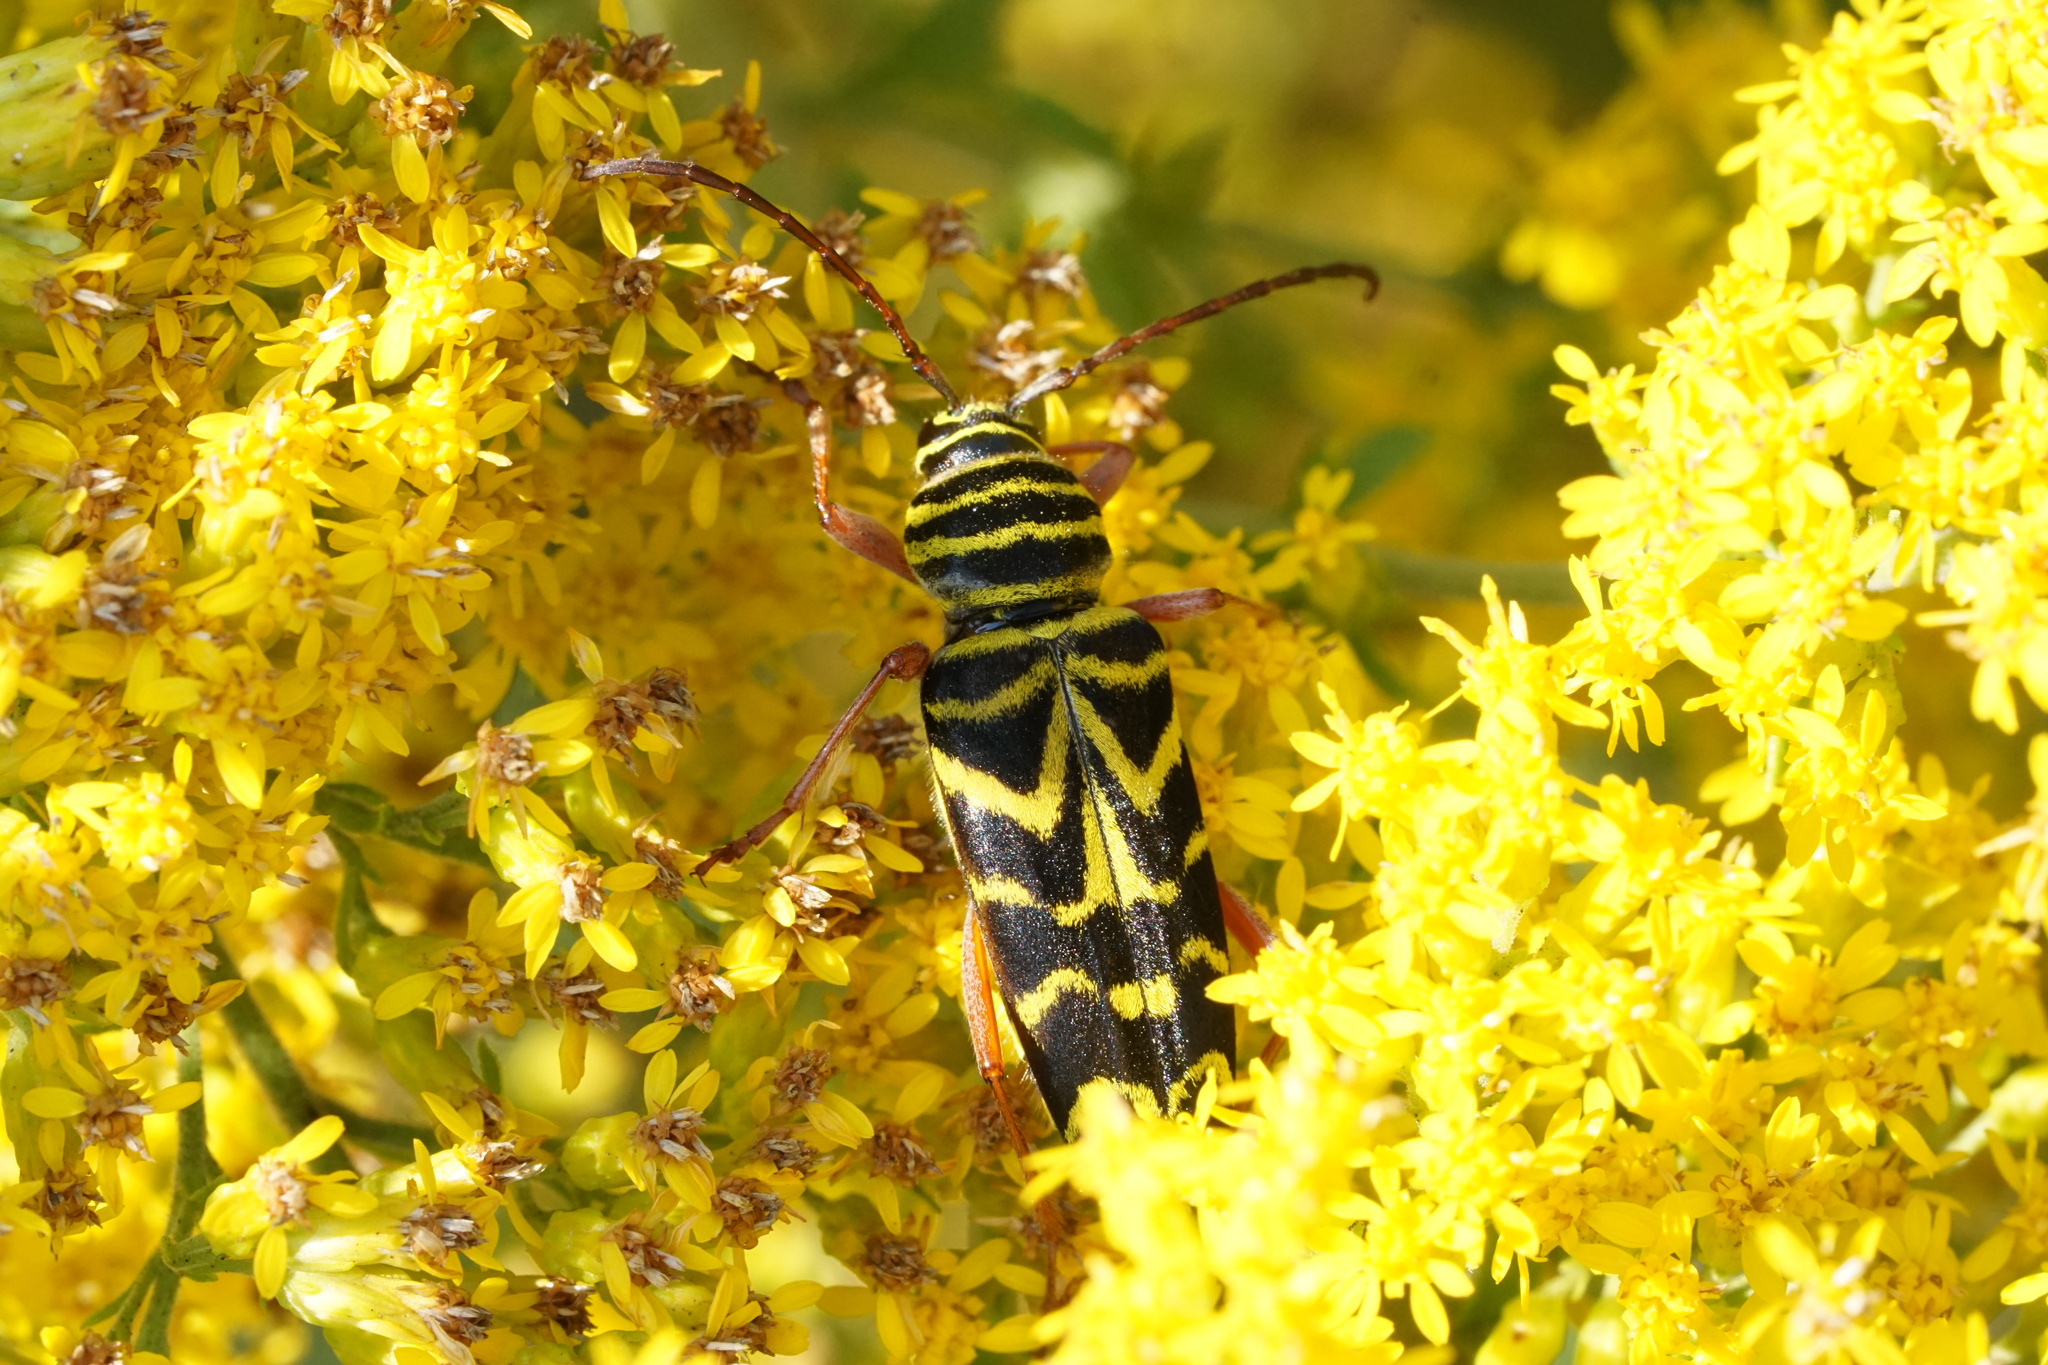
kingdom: Animalia
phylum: Arthropoda
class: Insecta
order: Coleoptera
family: Cerambycidae
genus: Megacyllene
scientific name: Megacyllene robiniae
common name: Locust borer
